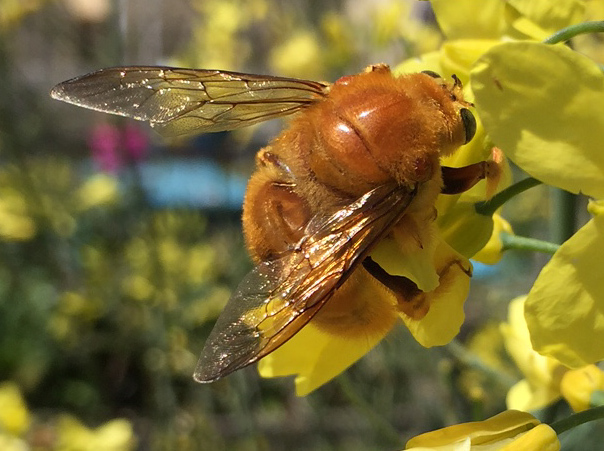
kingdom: Animalia
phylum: Arthropoda
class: Insecta
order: Hymenoptera
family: Apidae
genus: Xylocopa
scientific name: Xylocopa sonorina
